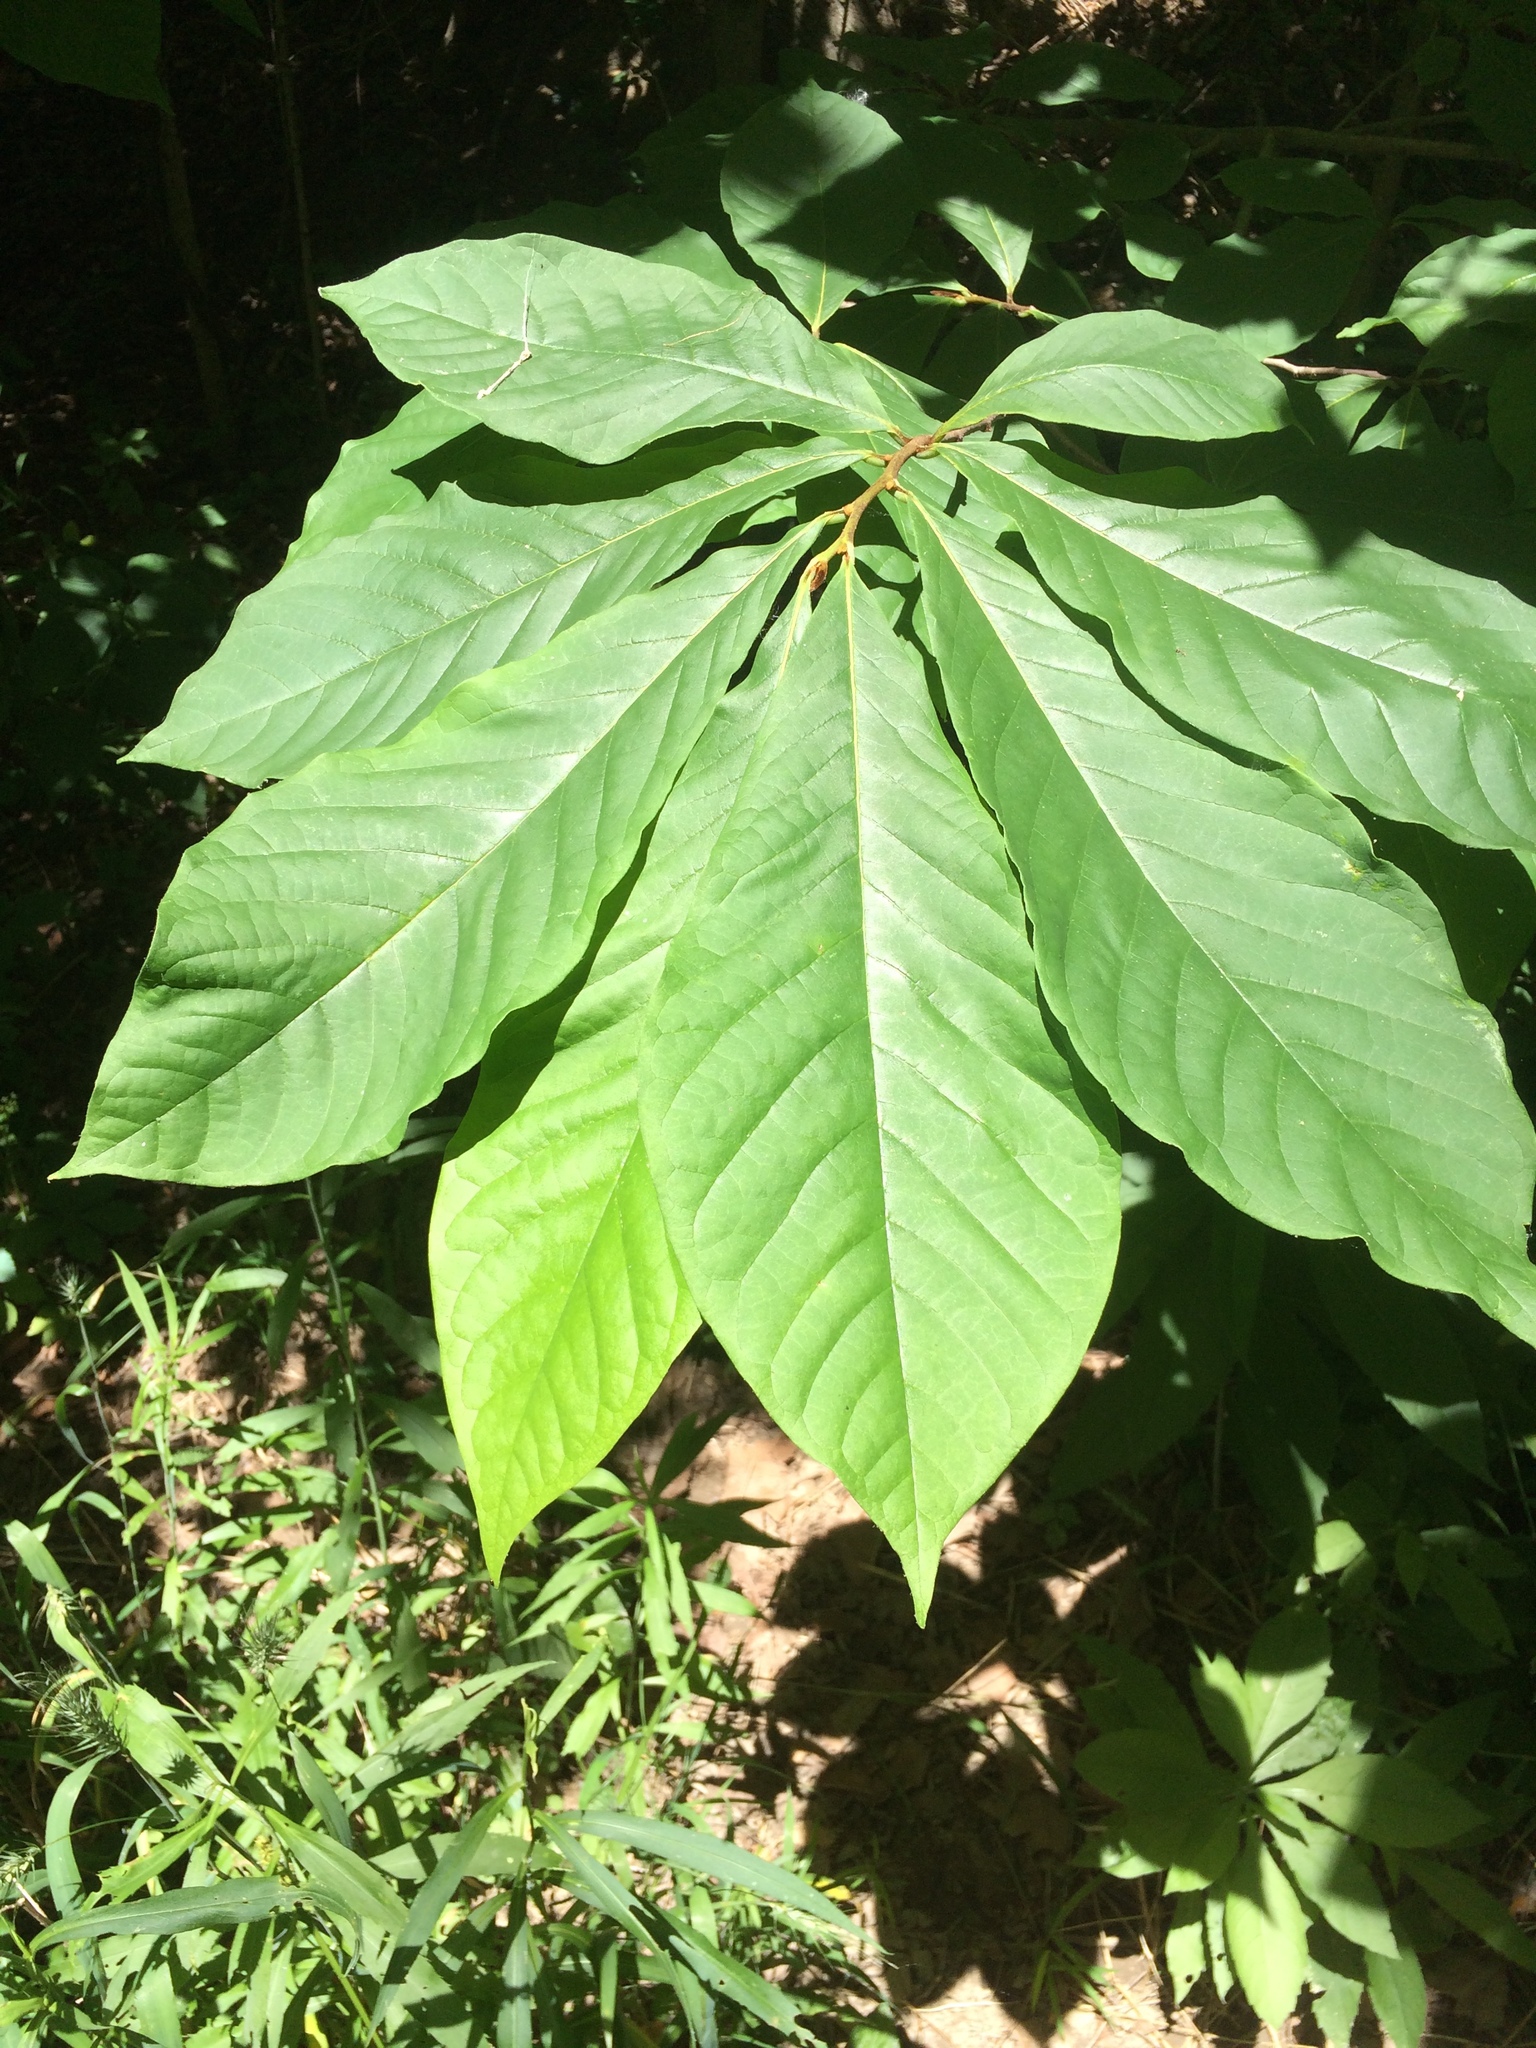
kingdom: Plantae
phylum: Tracheophyta
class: Magnoliopsida
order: Magnoliales
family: Annonaceae
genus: Asimina
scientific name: Asimina triloba
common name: Dog-banana
